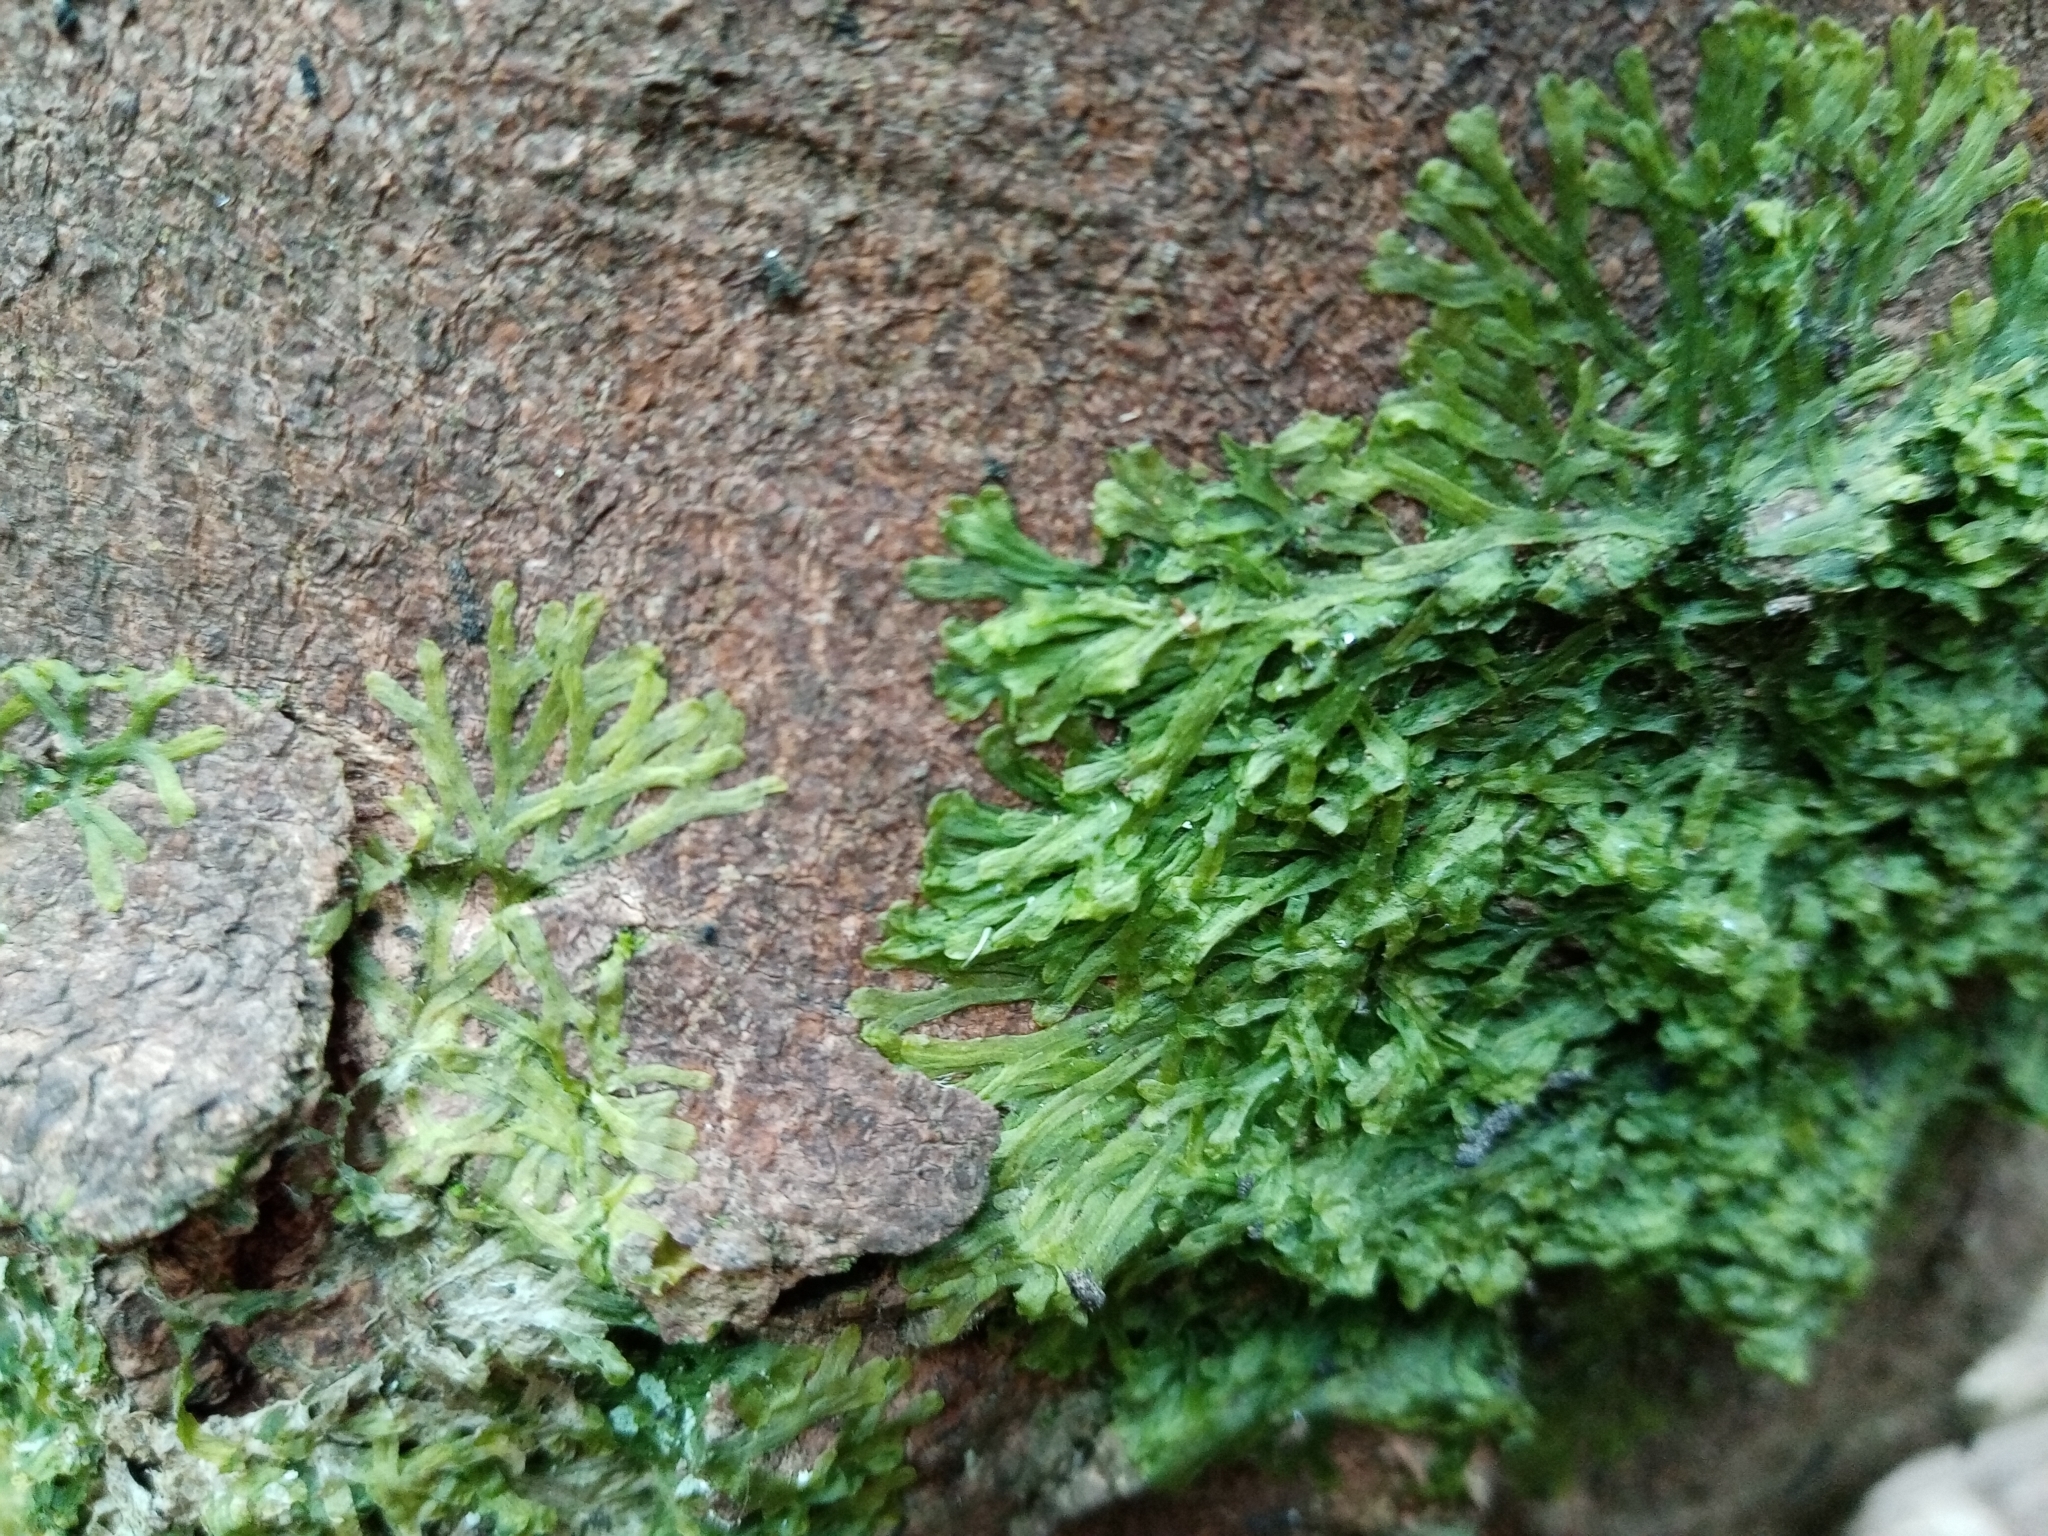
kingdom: Plantae
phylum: Marchantiophyta
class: Jungermanniopsida
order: Metzgeriales
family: Metzgeriaceae
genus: Metzgeria
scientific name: Metzgeria furcata
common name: Forked veilwort
